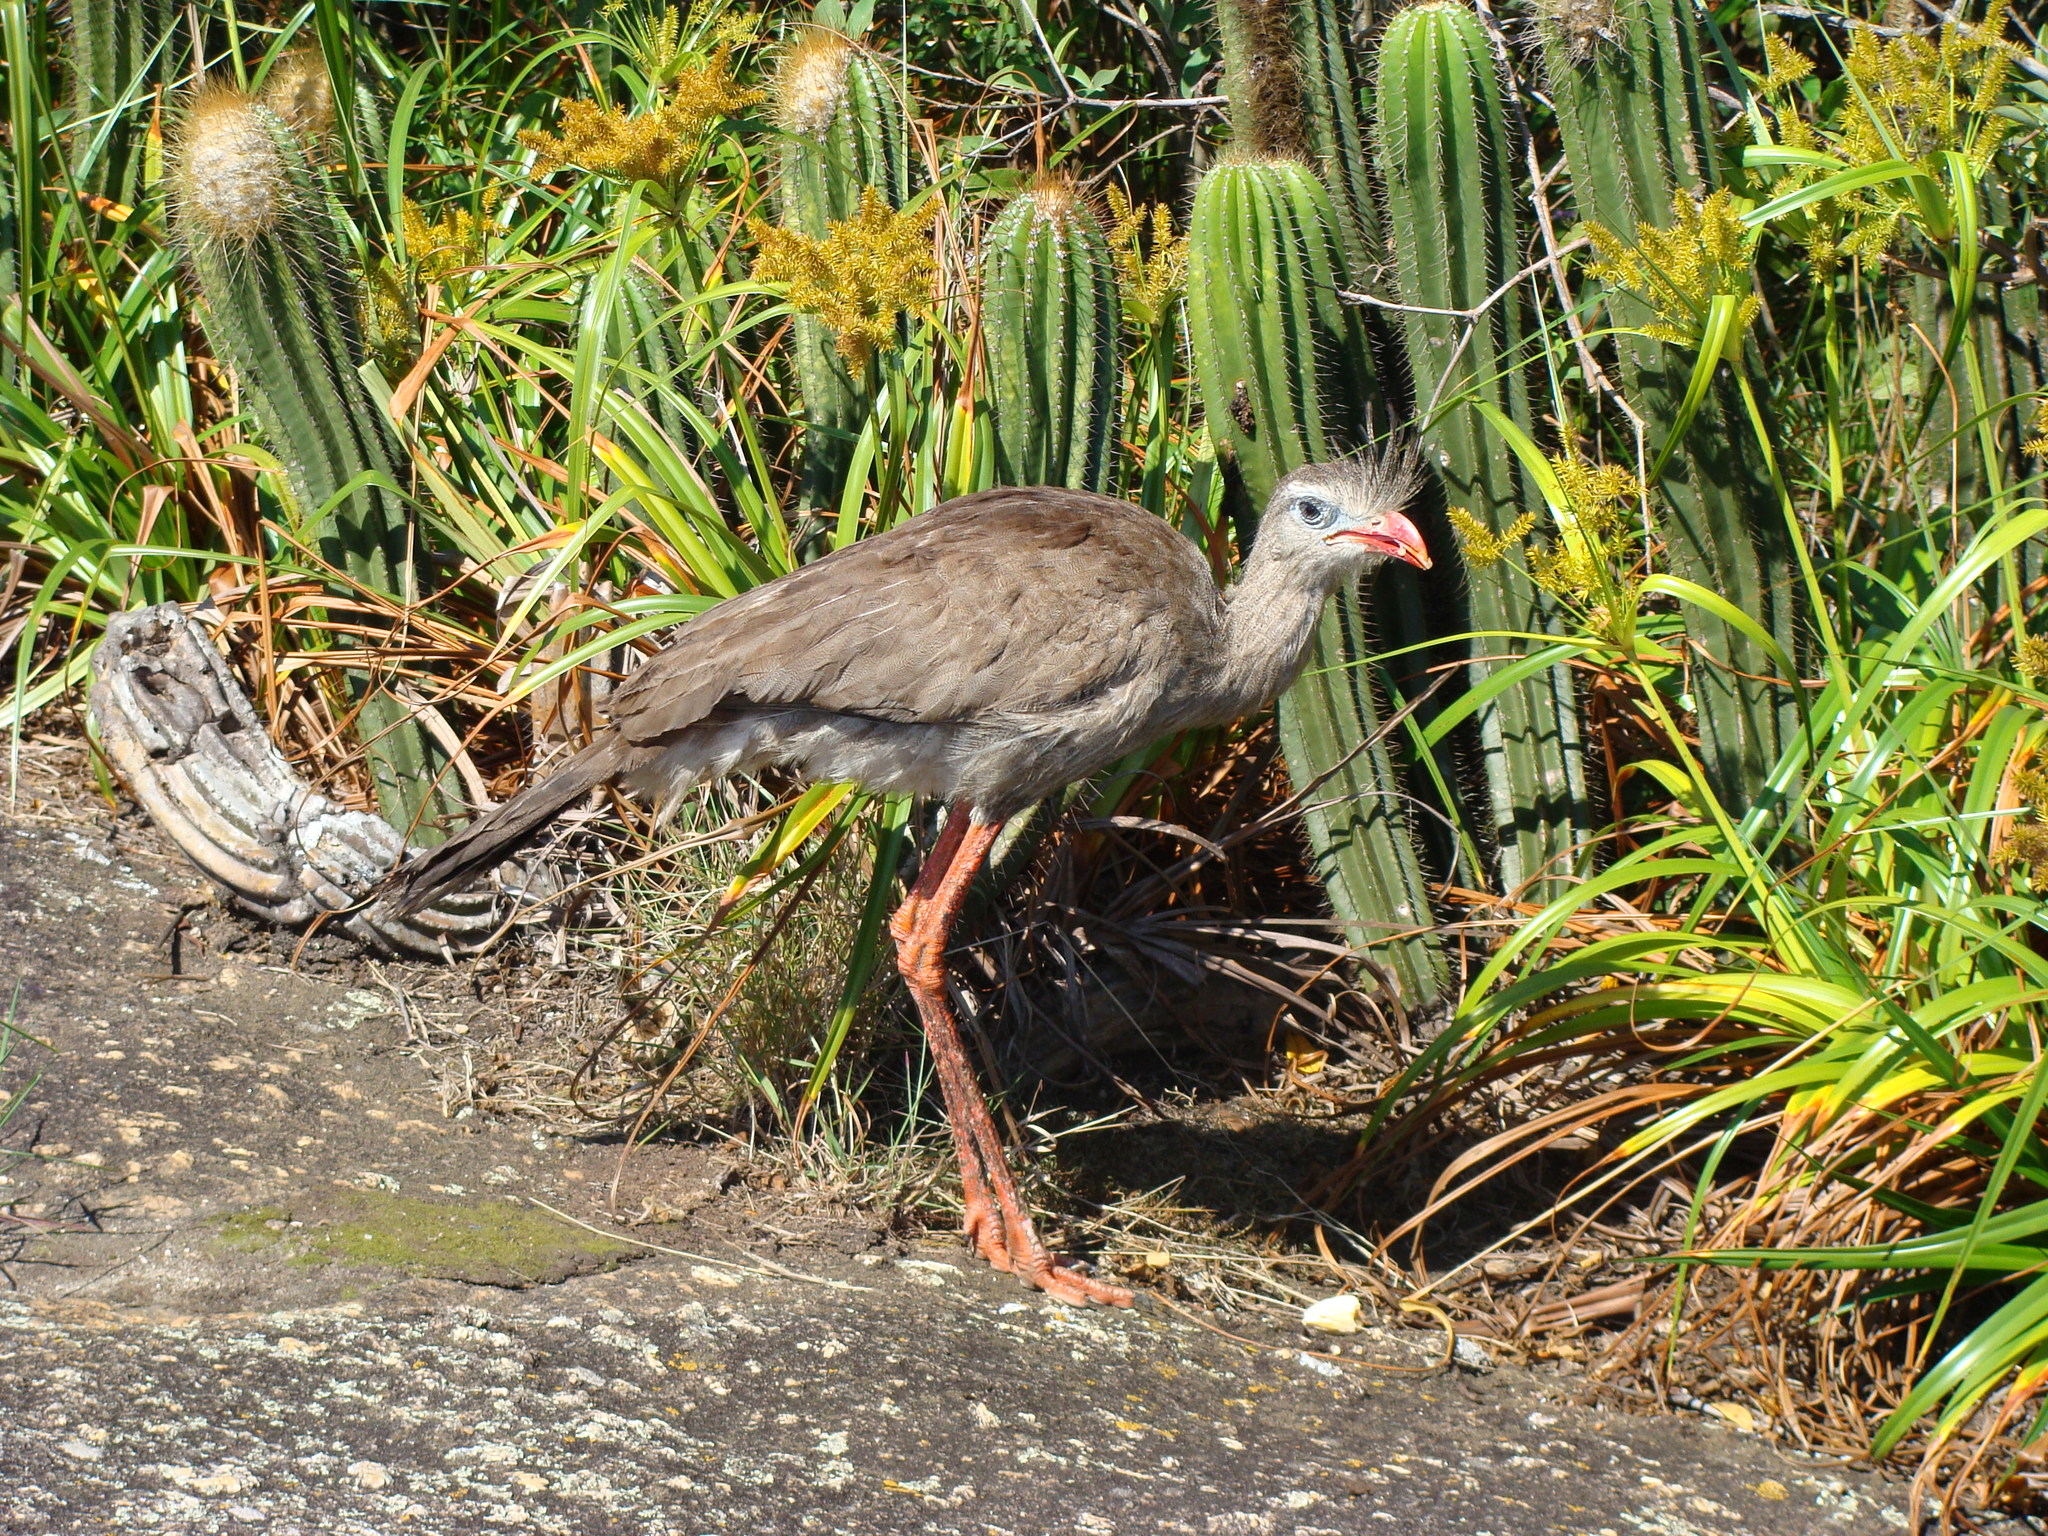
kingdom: Animalia
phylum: Chordata
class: Aves
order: Cariamiformes
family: Cariamidae
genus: Cariama
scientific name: Cariama cristata
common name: Red-legged seriema
